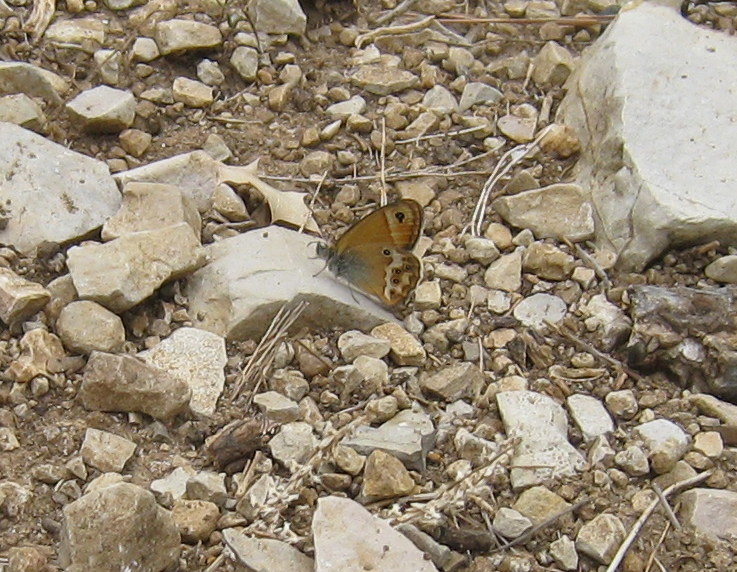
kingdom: Animalia
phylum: Arthropoda
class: Insecta
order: Lepidoptera
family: Nymphalidae
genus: Coenonympha
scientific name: Coenonympha dorus
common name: Dusky heath
